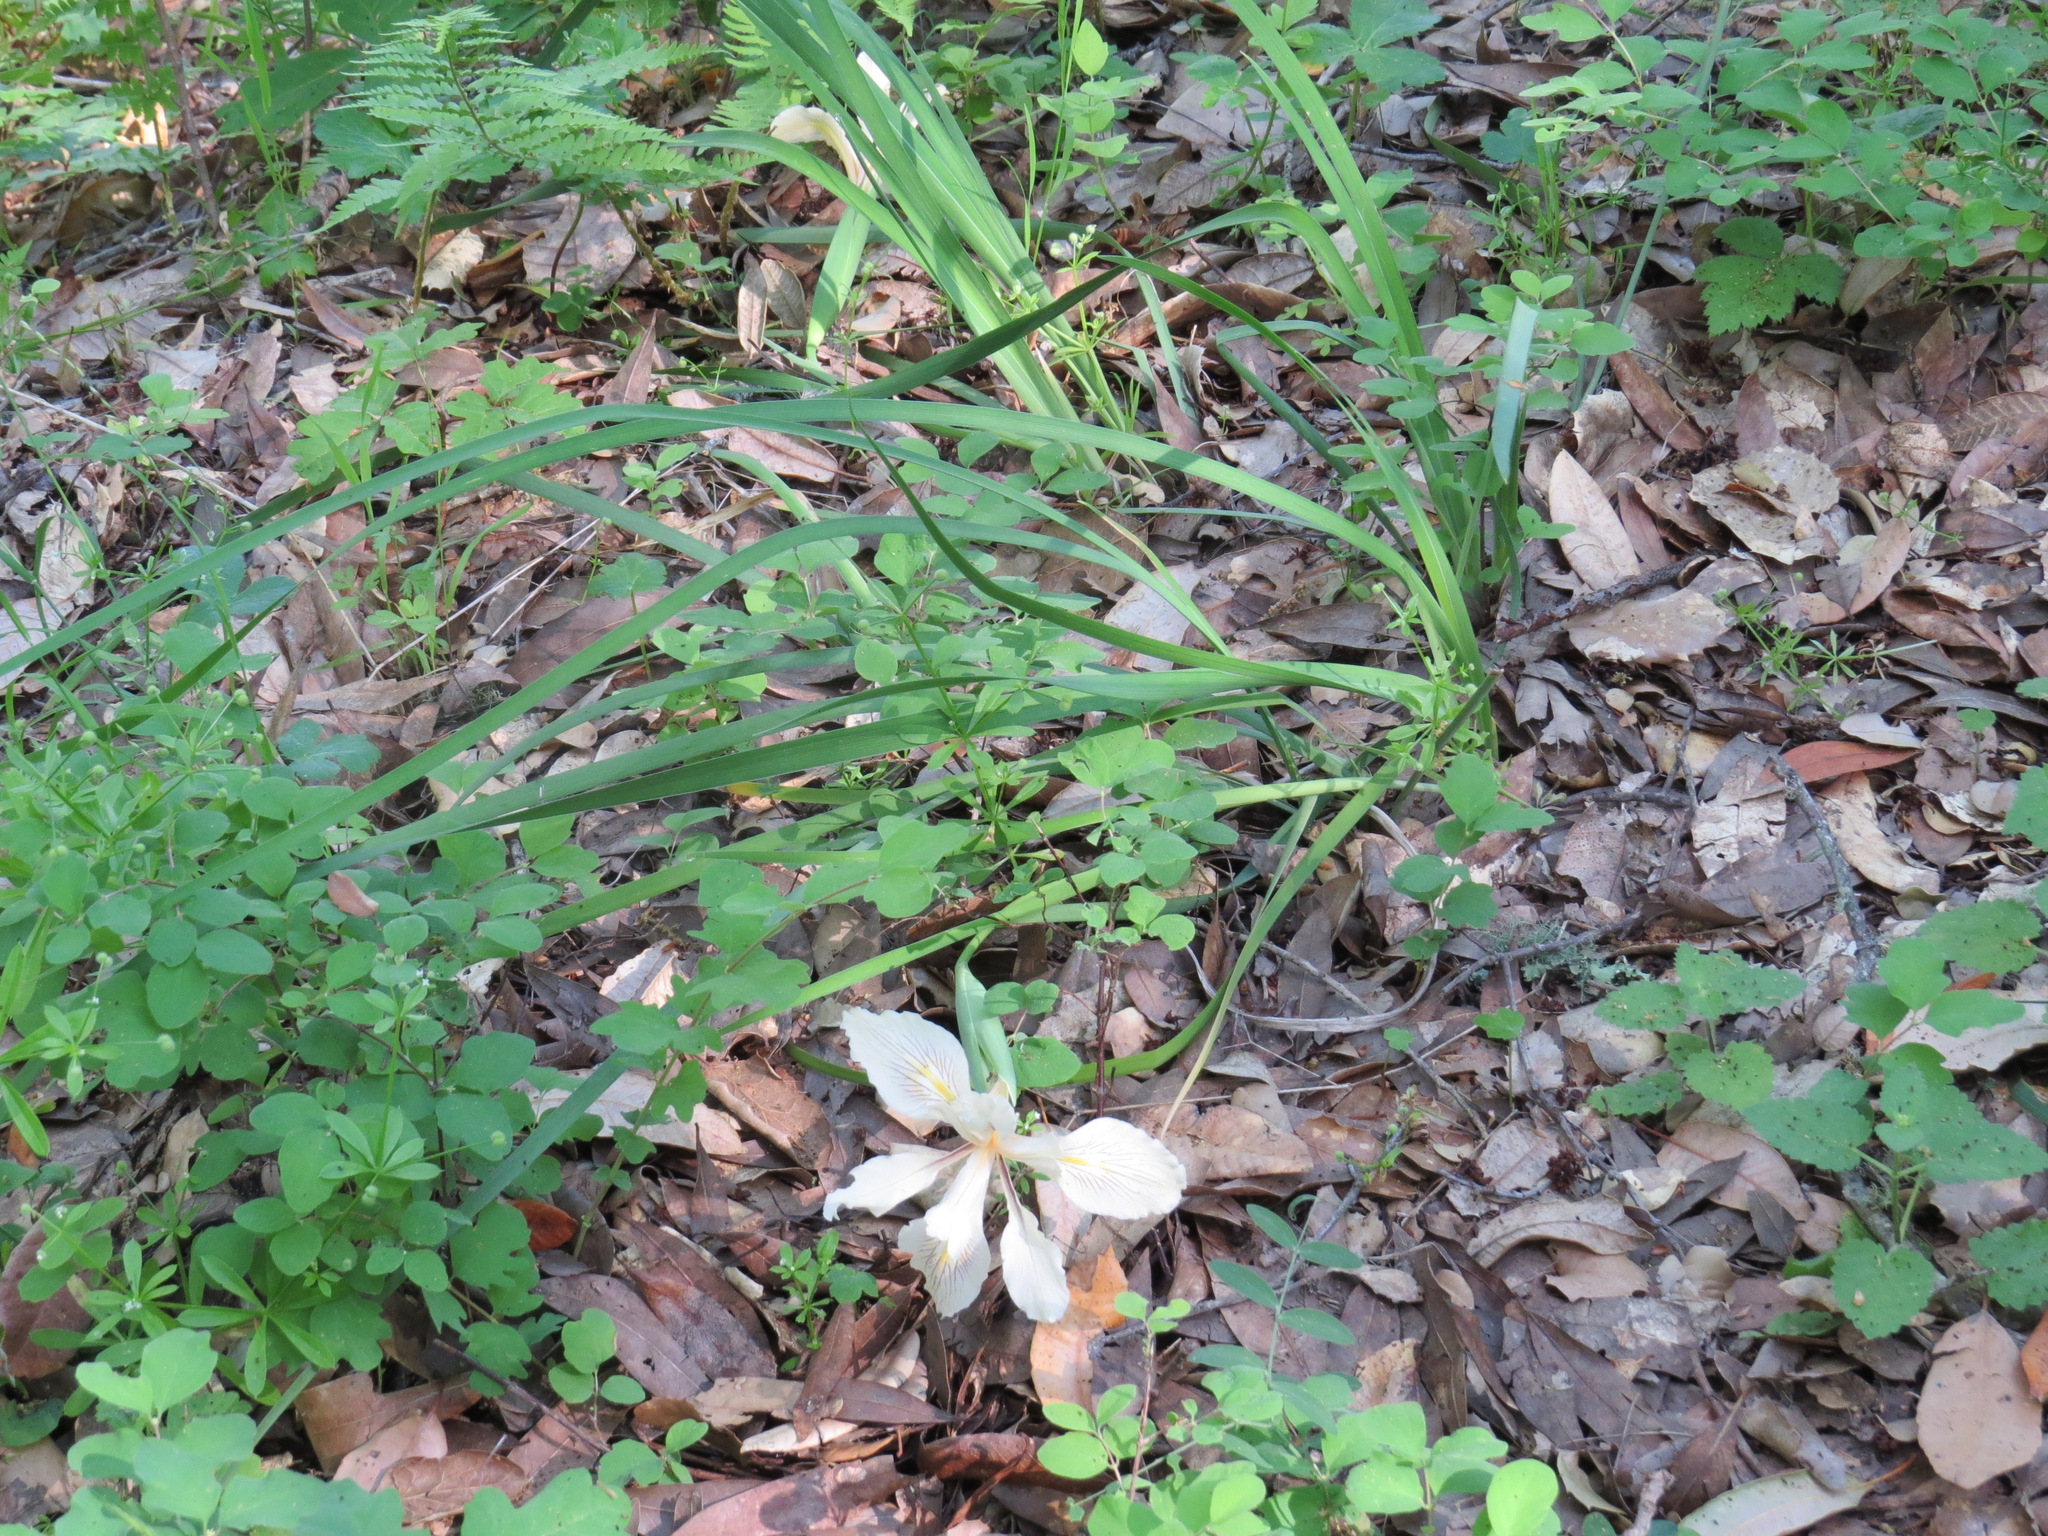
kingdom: Plantae
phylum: Tracheophyta
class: Liliopsida
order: Asparagales
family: Iridaceae
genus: Iris
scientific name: Iris fernaldii
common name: Fernald's iris
